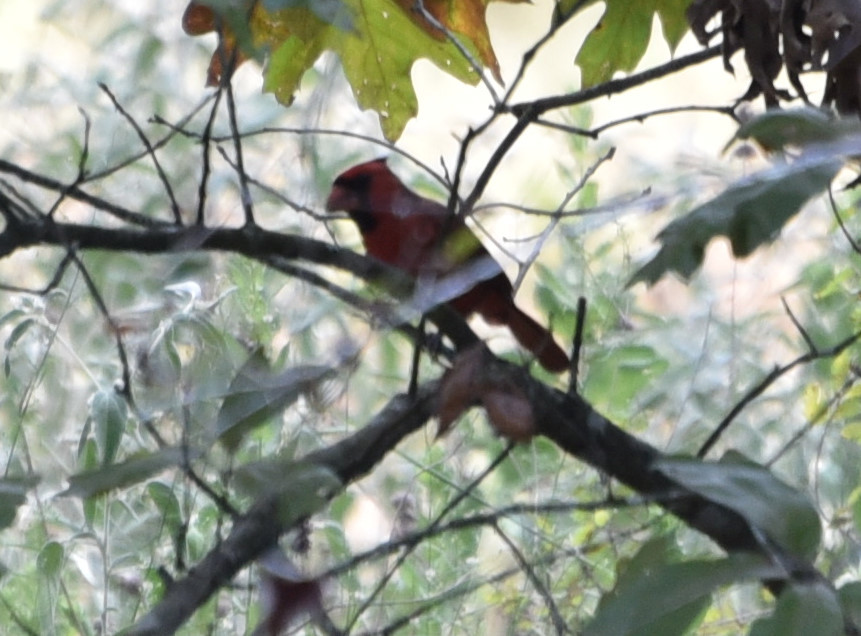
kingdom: Animalia
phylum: Chordata
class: Aves
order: Passeriformes
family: Cardinalidae
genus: Cardinalis
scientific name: Cardinalis cardinalis
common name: Northern cardinal
